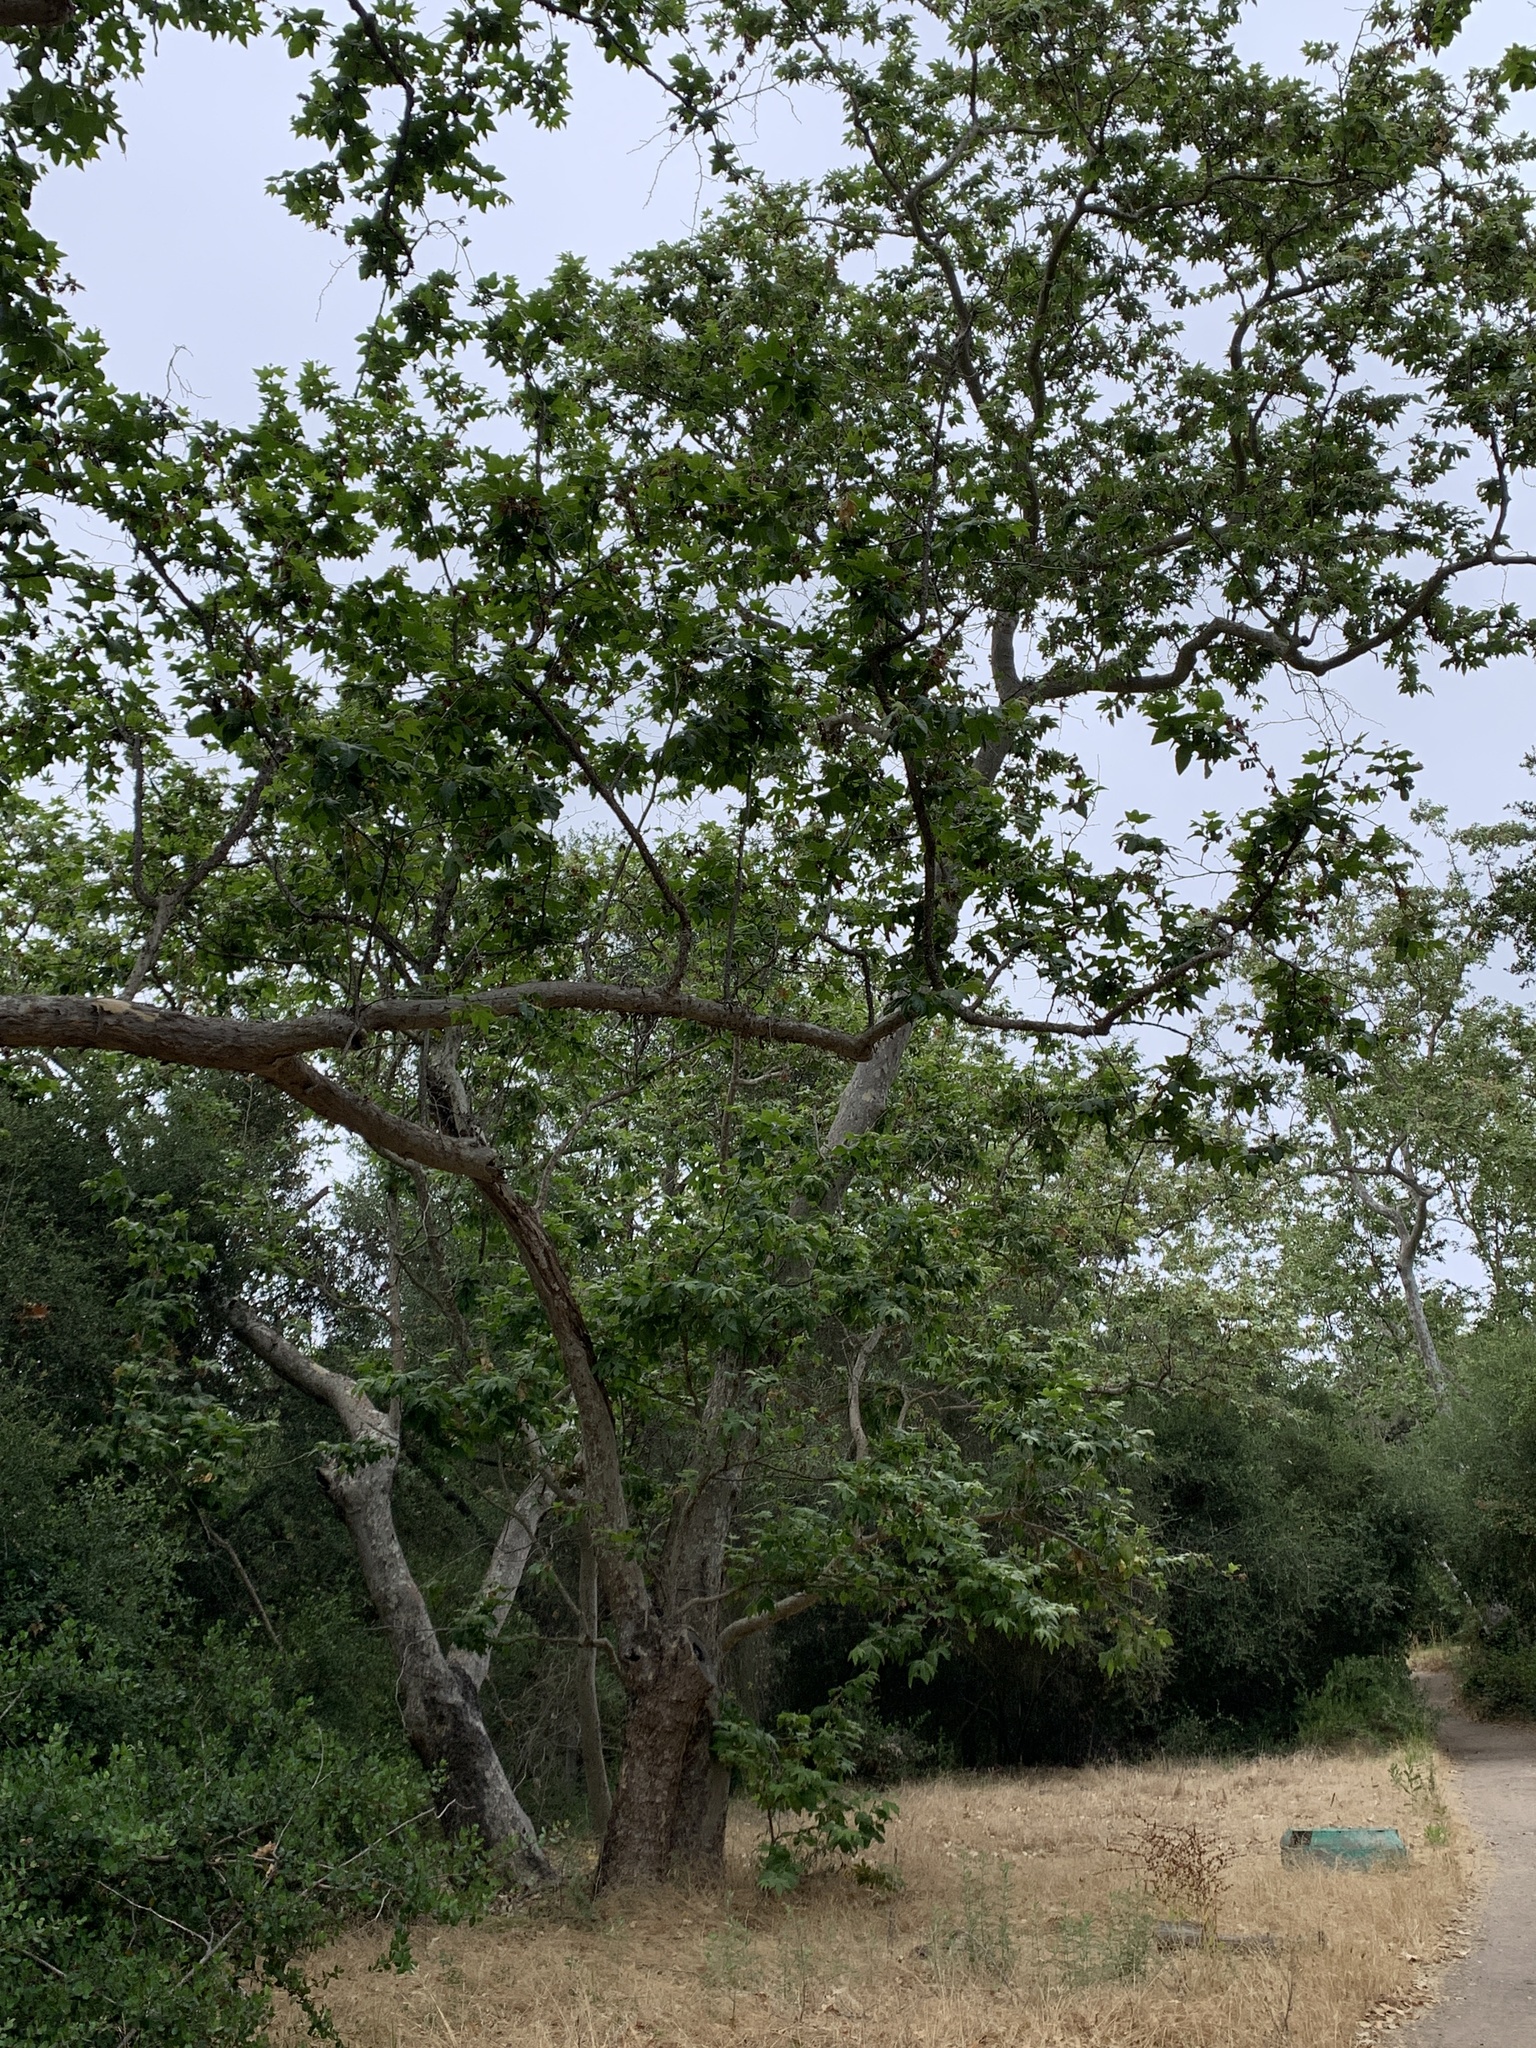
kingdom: Plantae
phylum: Tracheophyta
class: Magnoliopsida
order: Proteales
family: Platanaceae
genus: Platanus
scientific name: Platanus racemosa
